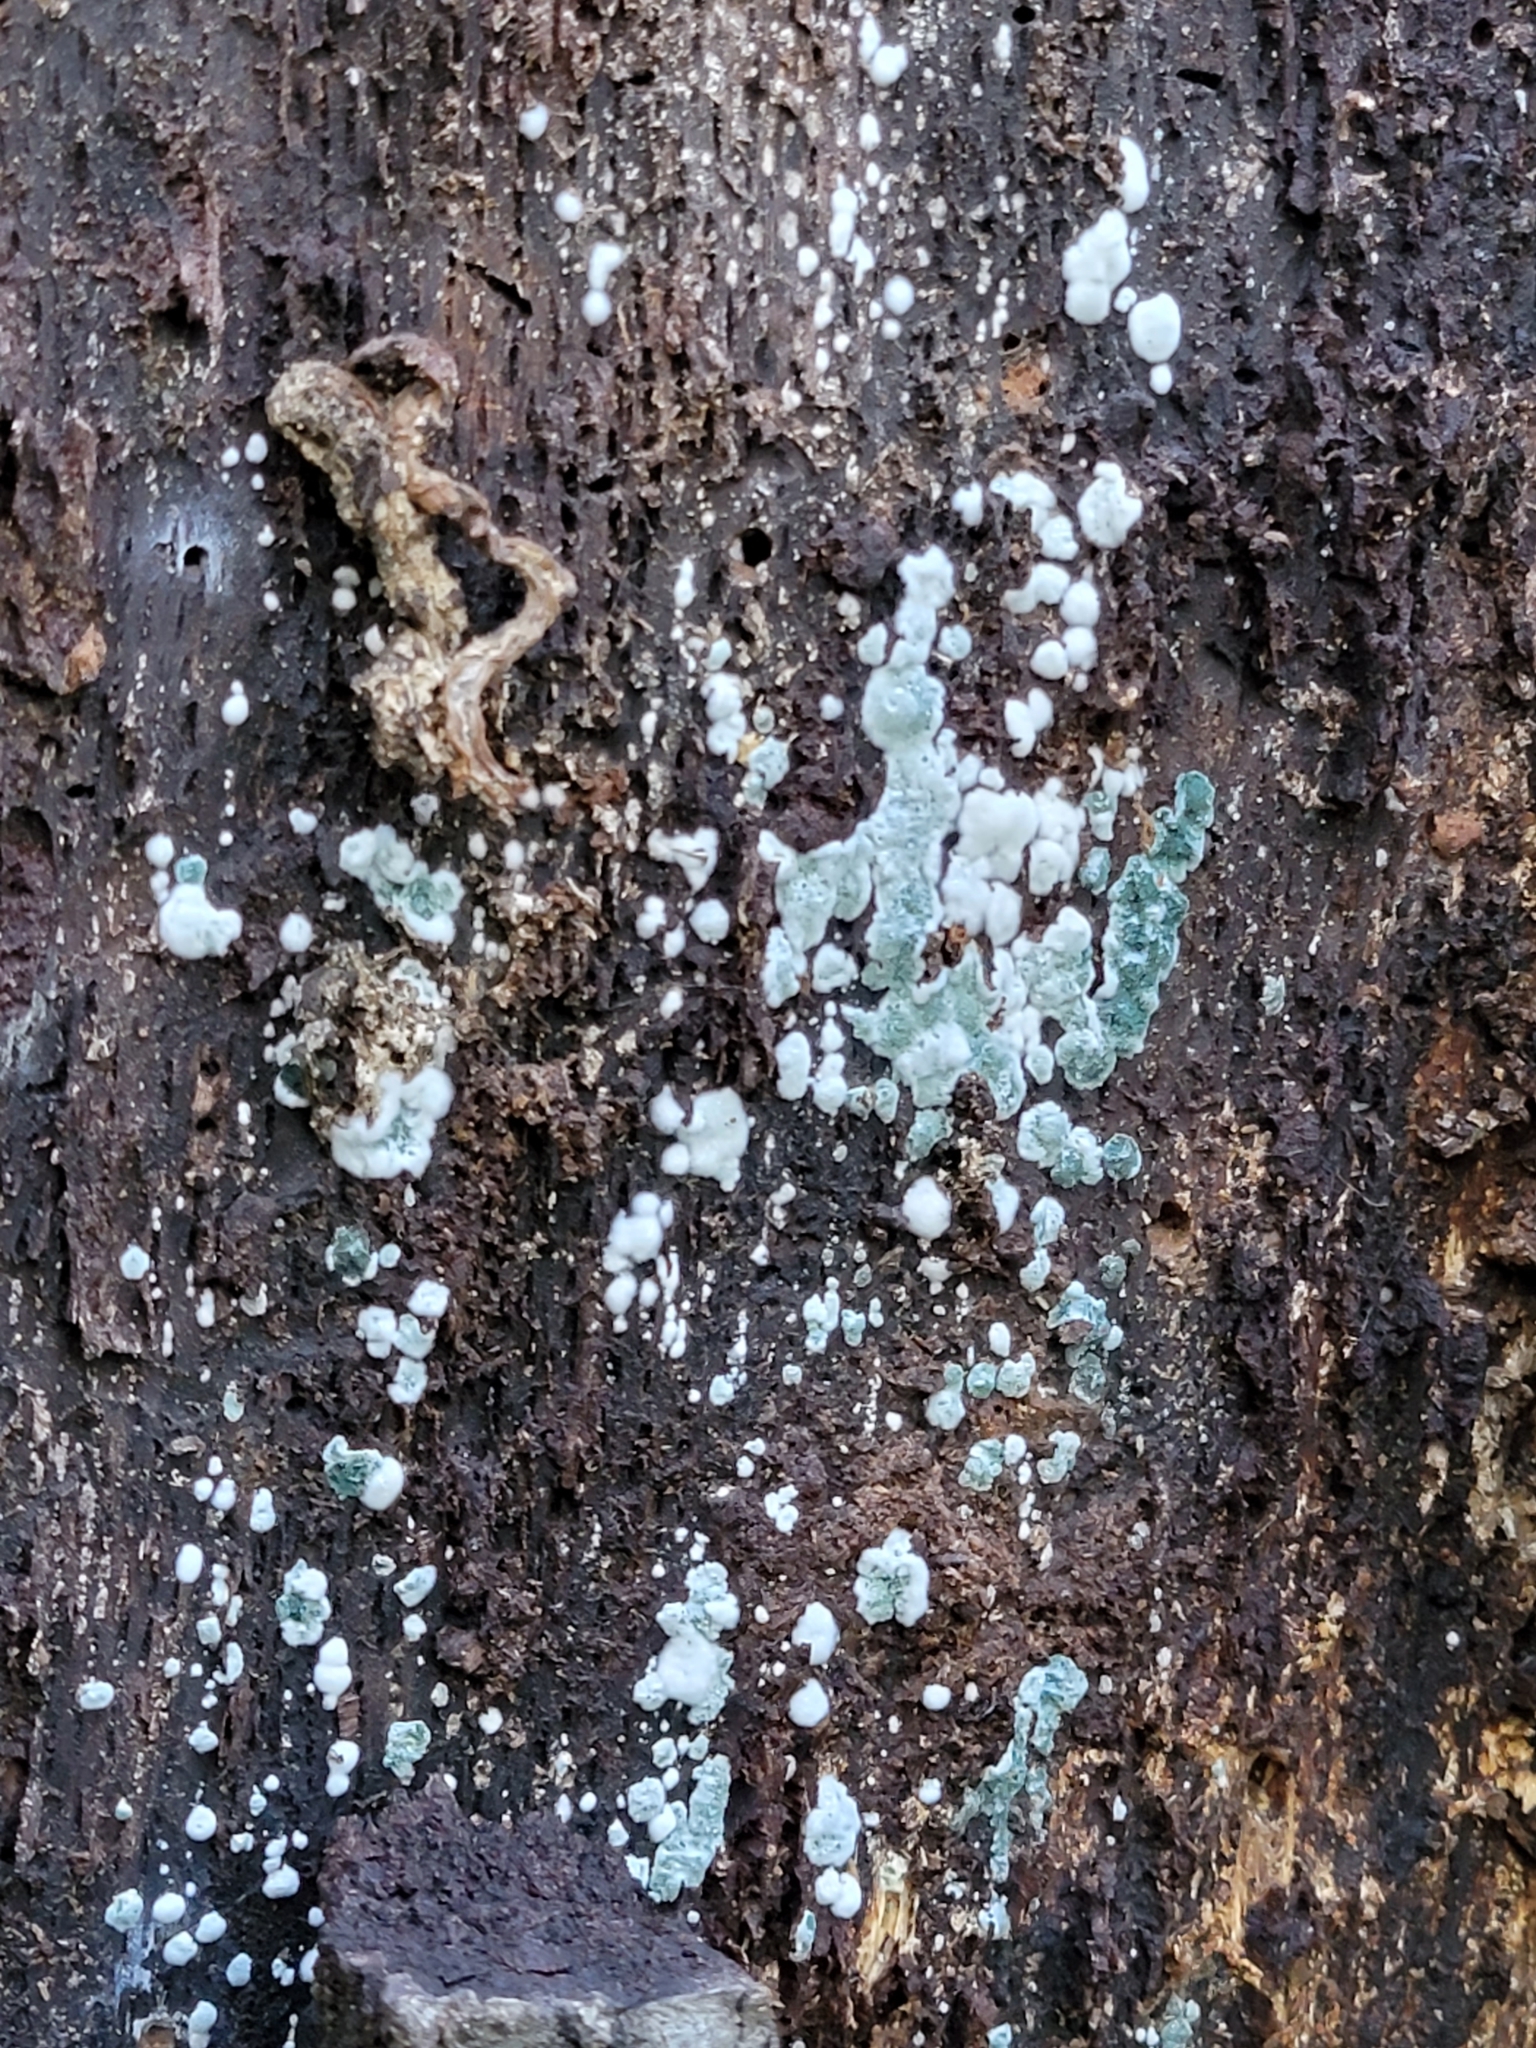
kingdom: Fungi
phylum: Ascomycota
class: Sordariomycetes
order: Hypocreales
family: Hypocreaceae
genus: Trichoderma
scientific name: Trichoderma viride
